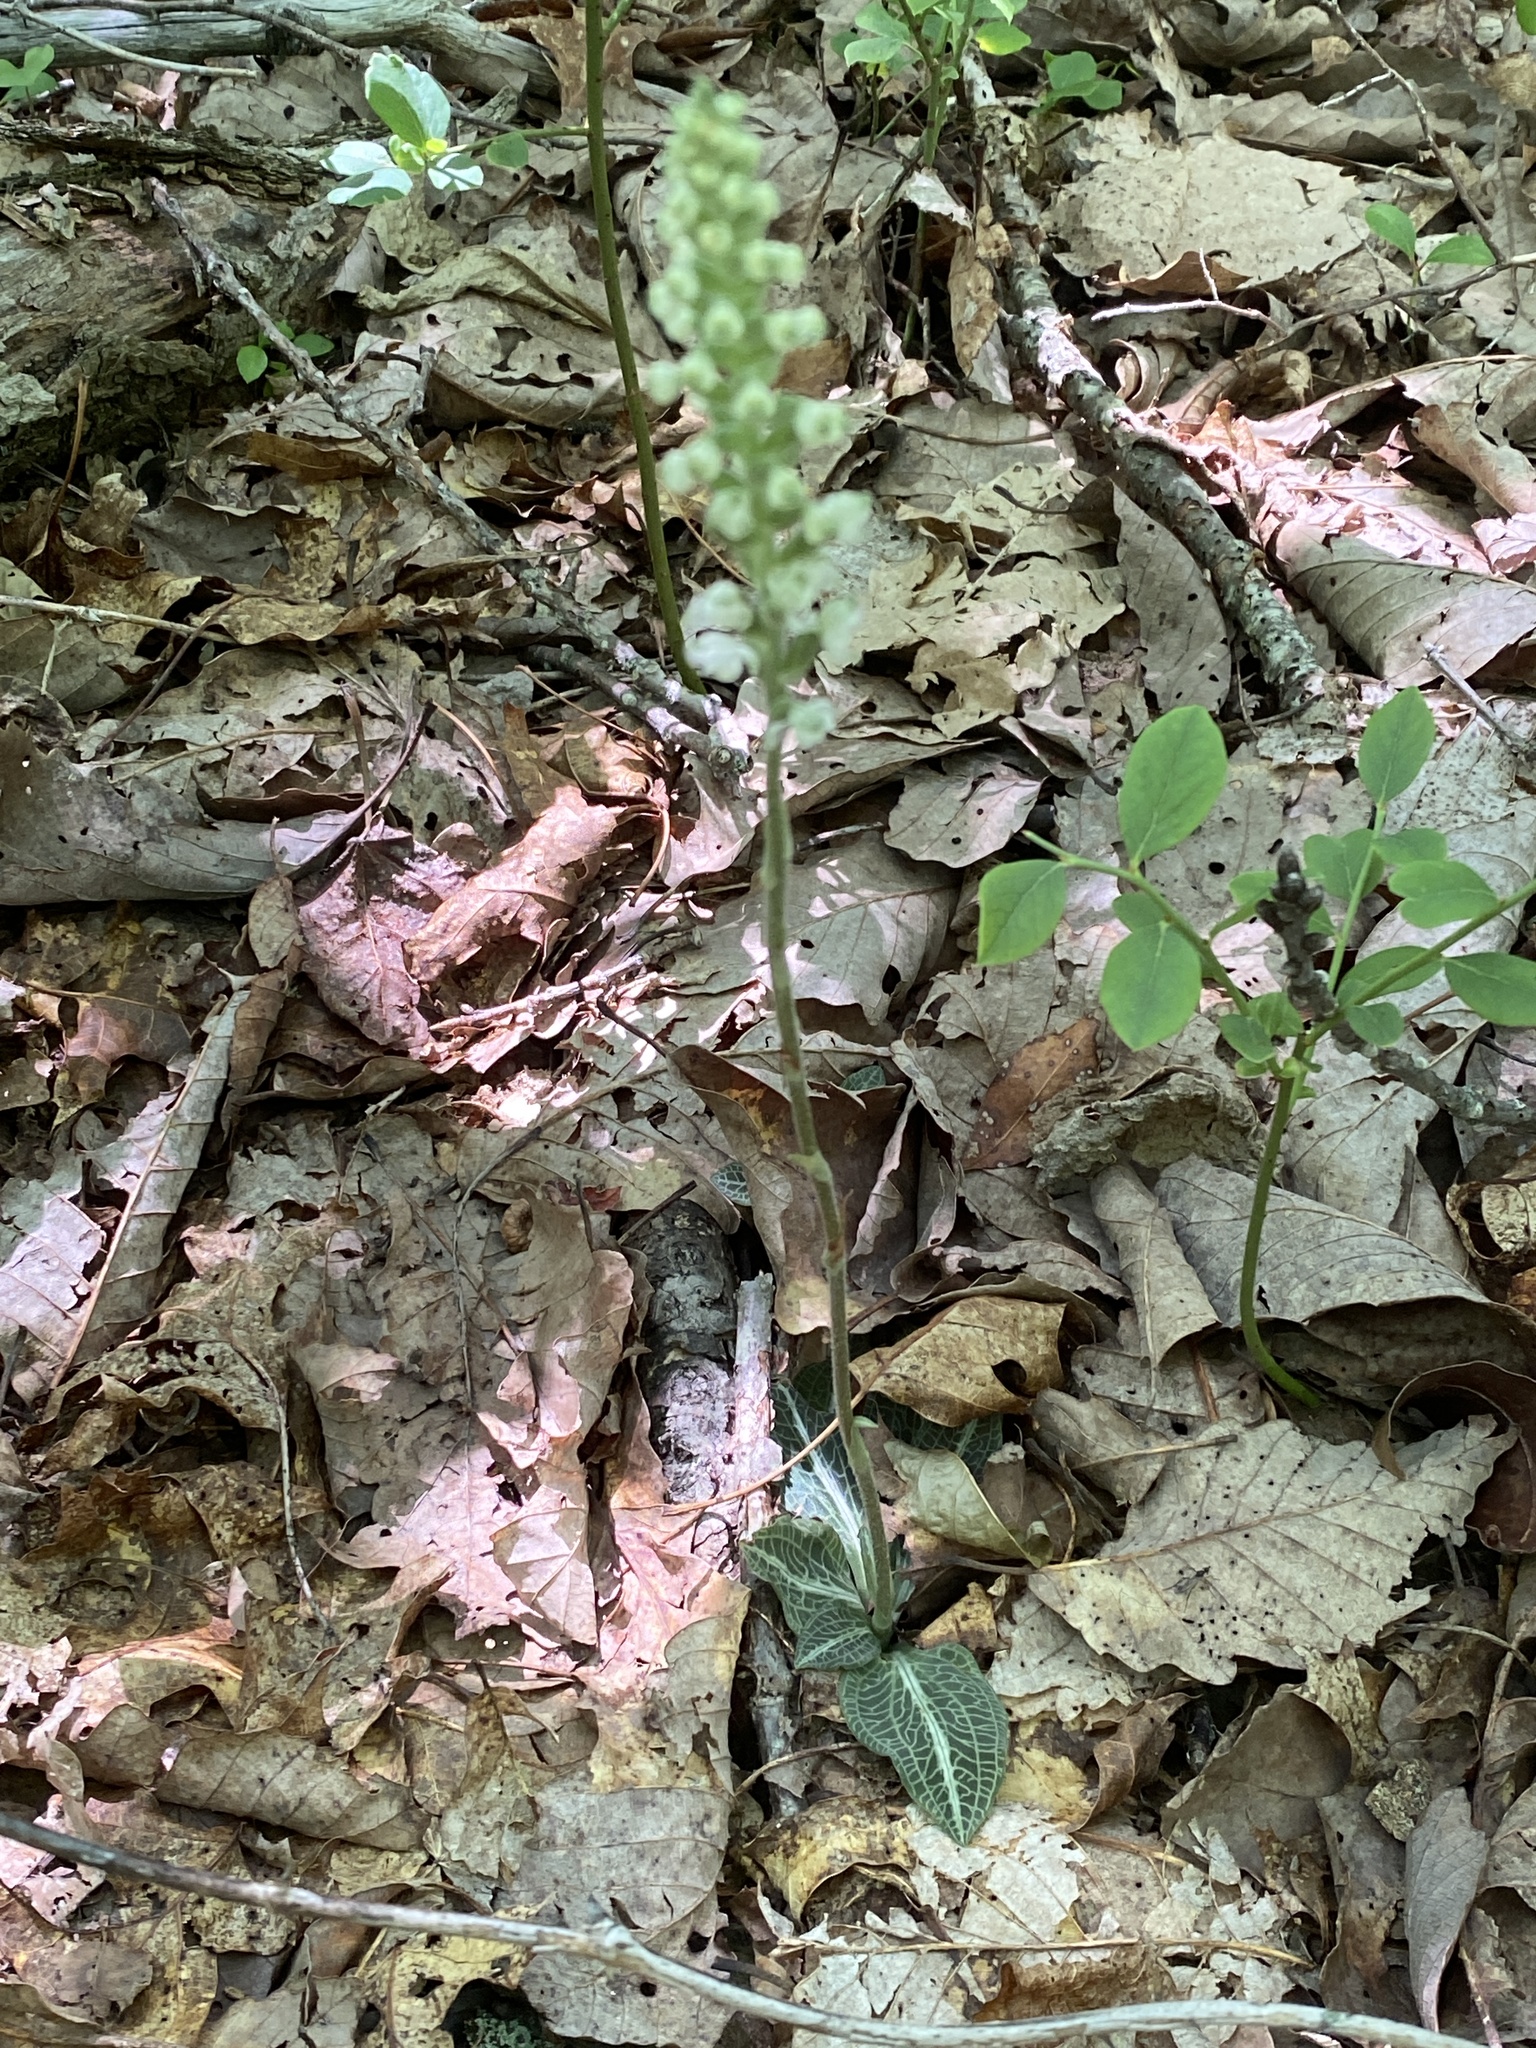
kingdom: Plantae
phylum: Tracheophyta
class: Liliopsida
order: Asparagales
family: Orchidaceae
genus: Goodyera
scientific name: Goodyera pubescens
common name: Downy rattlesnake-plantain
